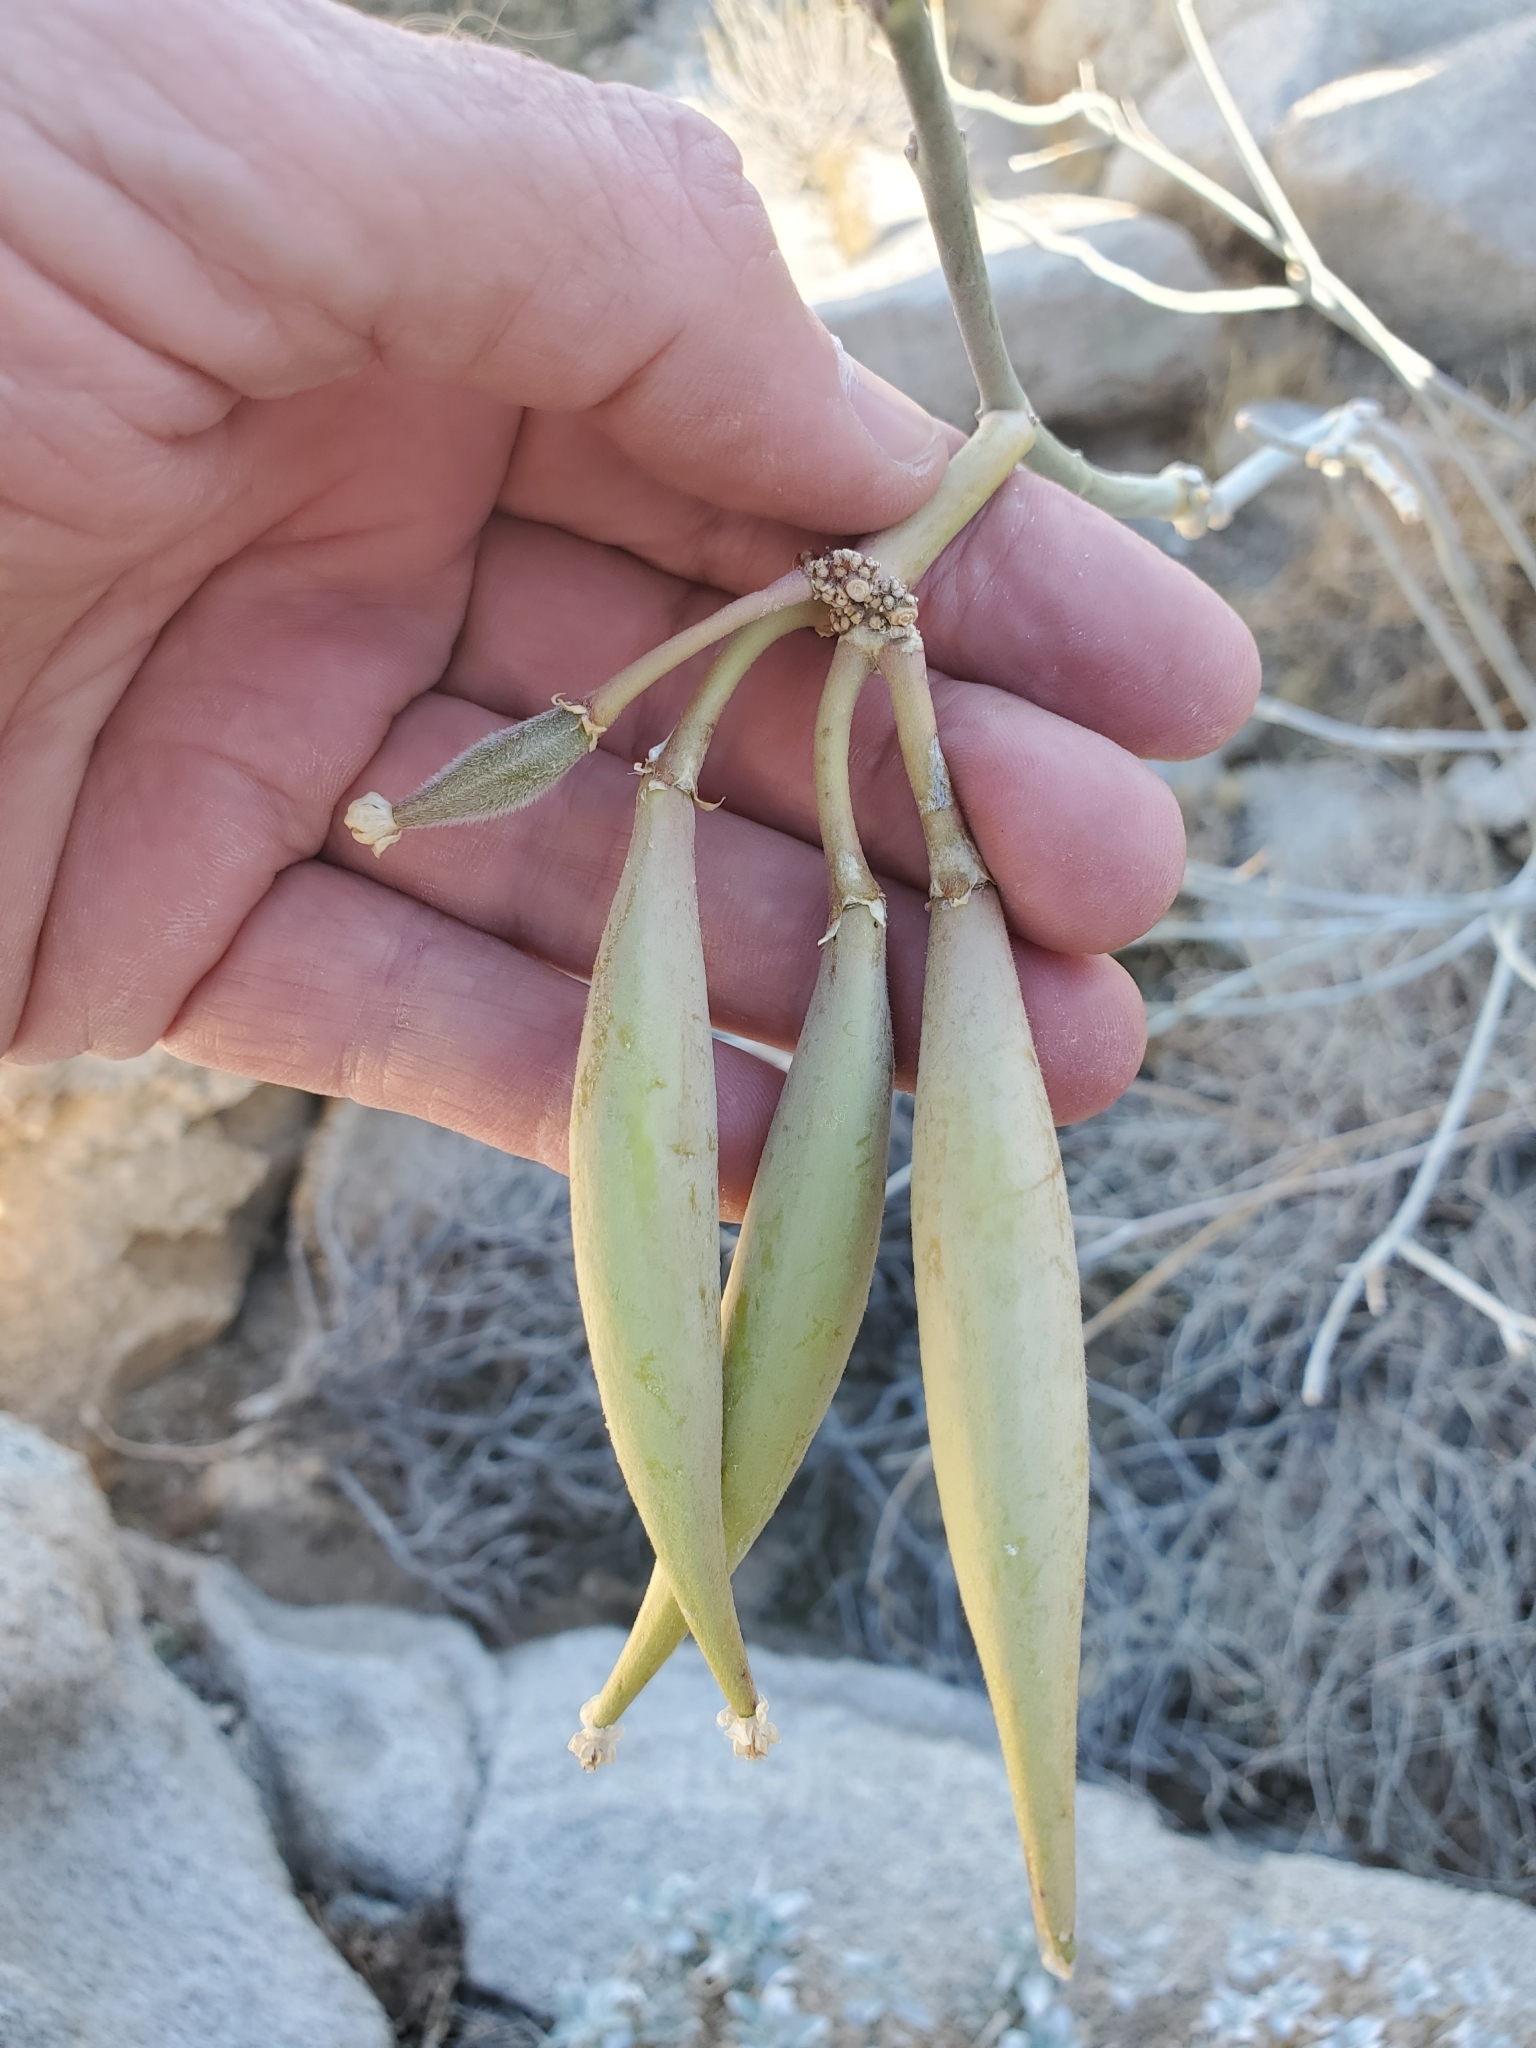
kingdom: Plantae
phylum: Tracheophyta
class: Magnoliopsida
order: Gentianales
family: Apocynaceae
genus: Asclepias
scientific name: Asclepias albicans
